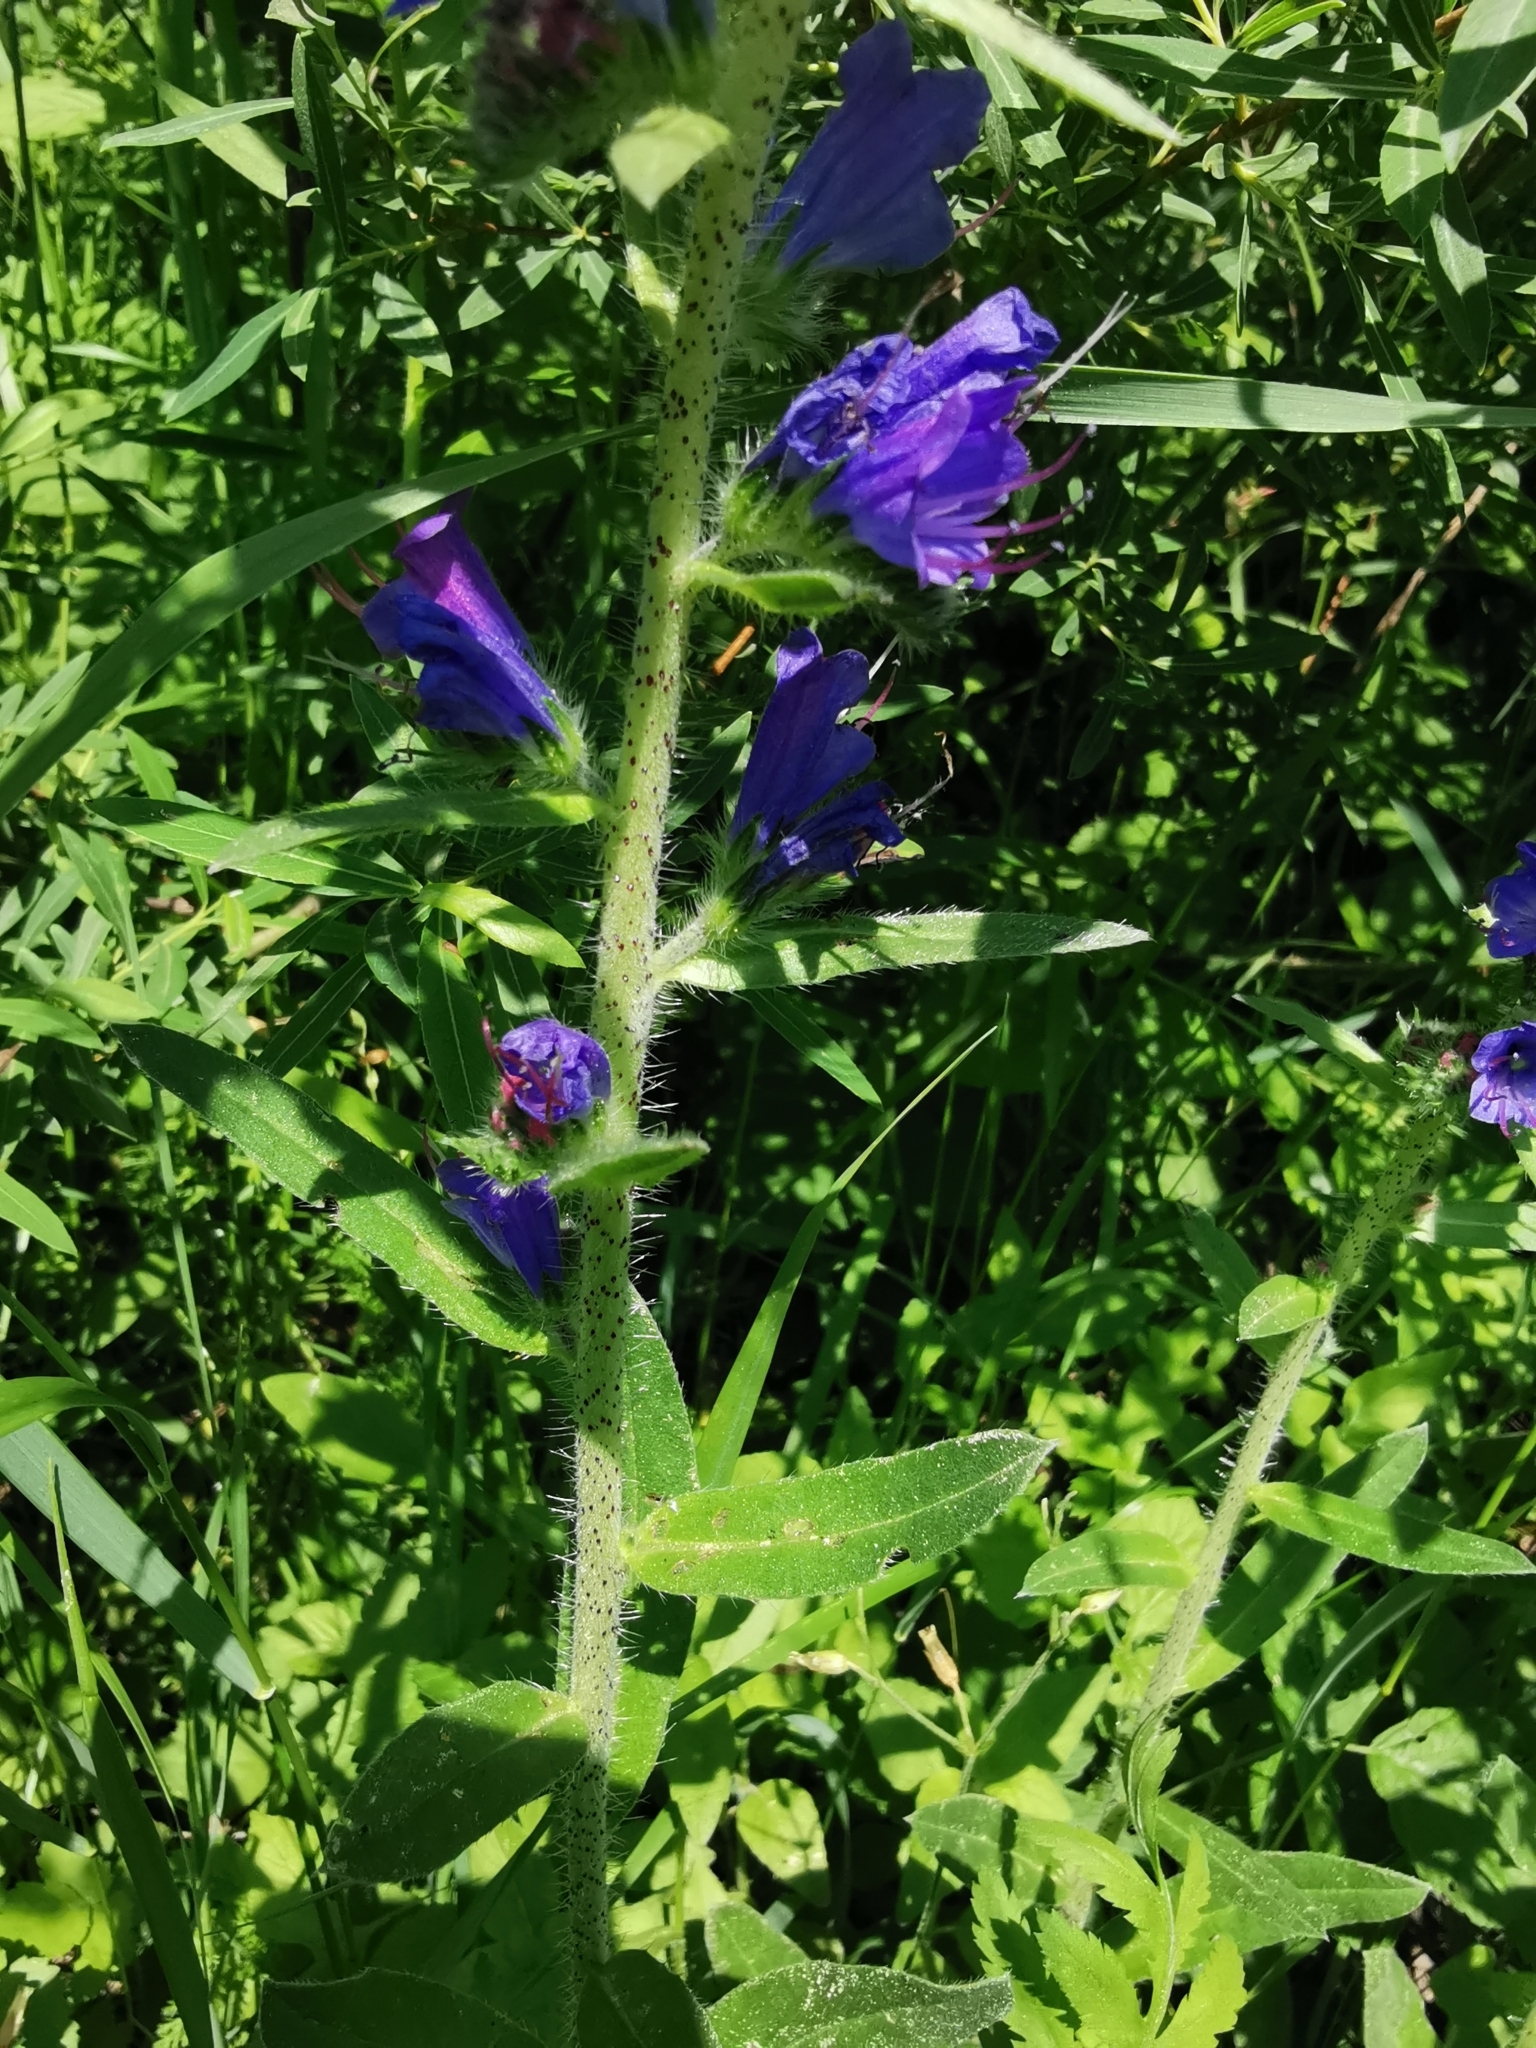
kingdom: Plantae
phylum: Tracheophyta
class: Magnoliopsida
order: Boraginales
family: Boraginaceae
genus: Echium
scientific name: Echium vulgare
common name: Common viper's bugloss
